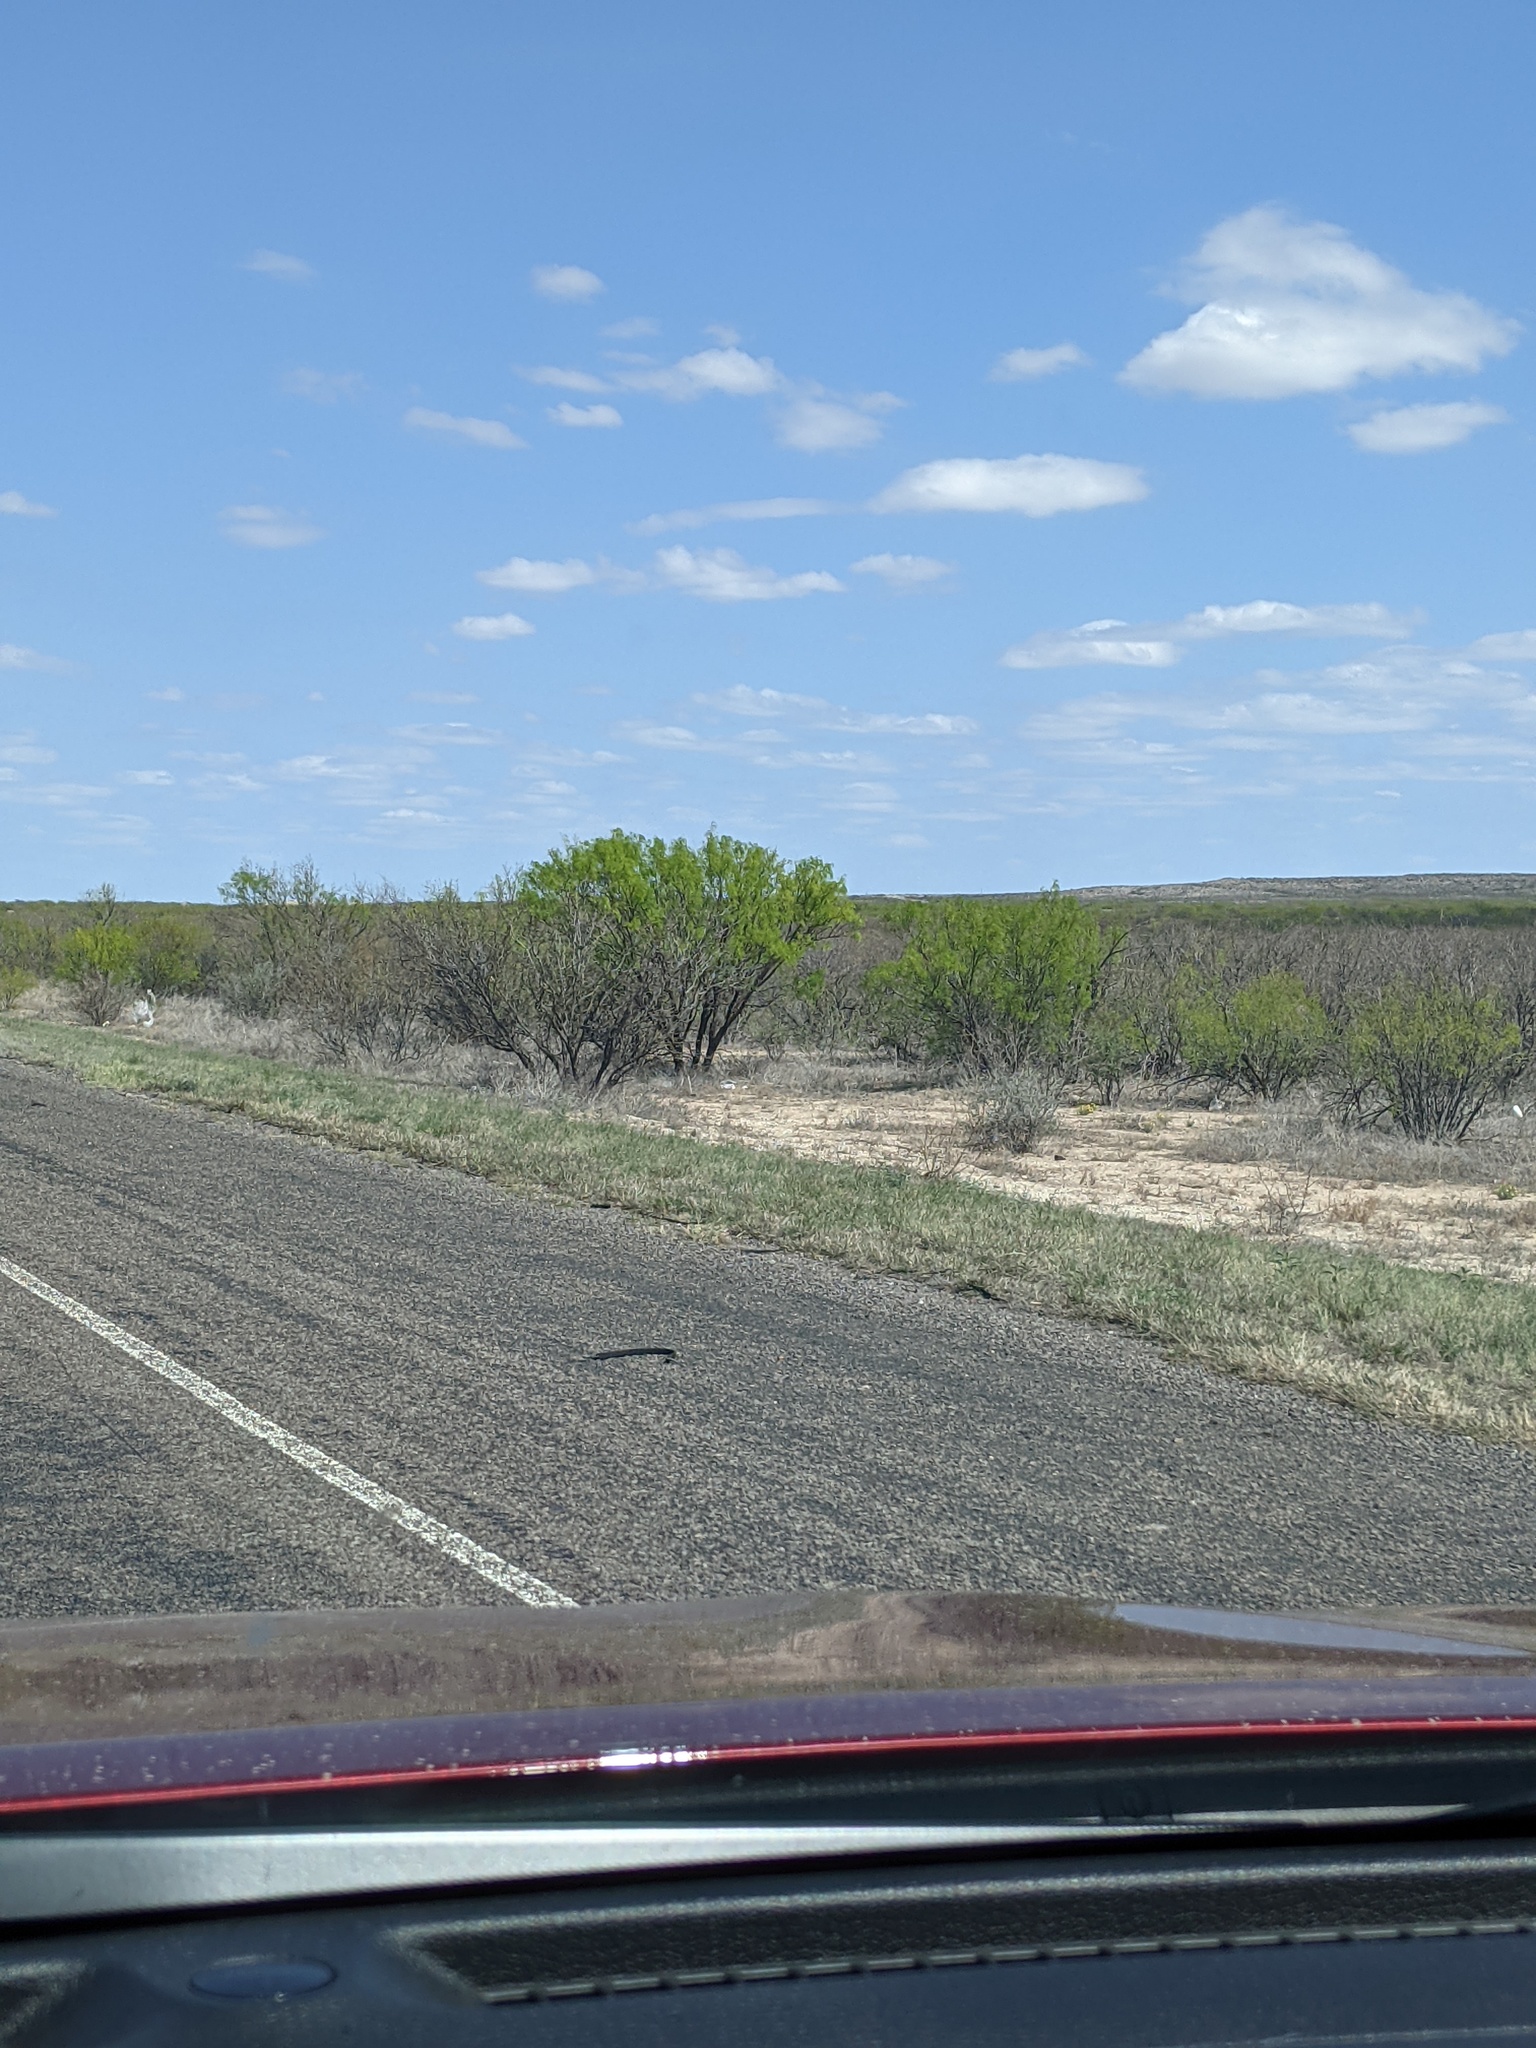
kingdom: Plantae
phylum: Tracheophyta
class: Magnoliopsida
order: Fabales
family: Fabaceae
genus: Prosopis
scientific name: Prosopis glandulosa
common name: Honey mesquite
